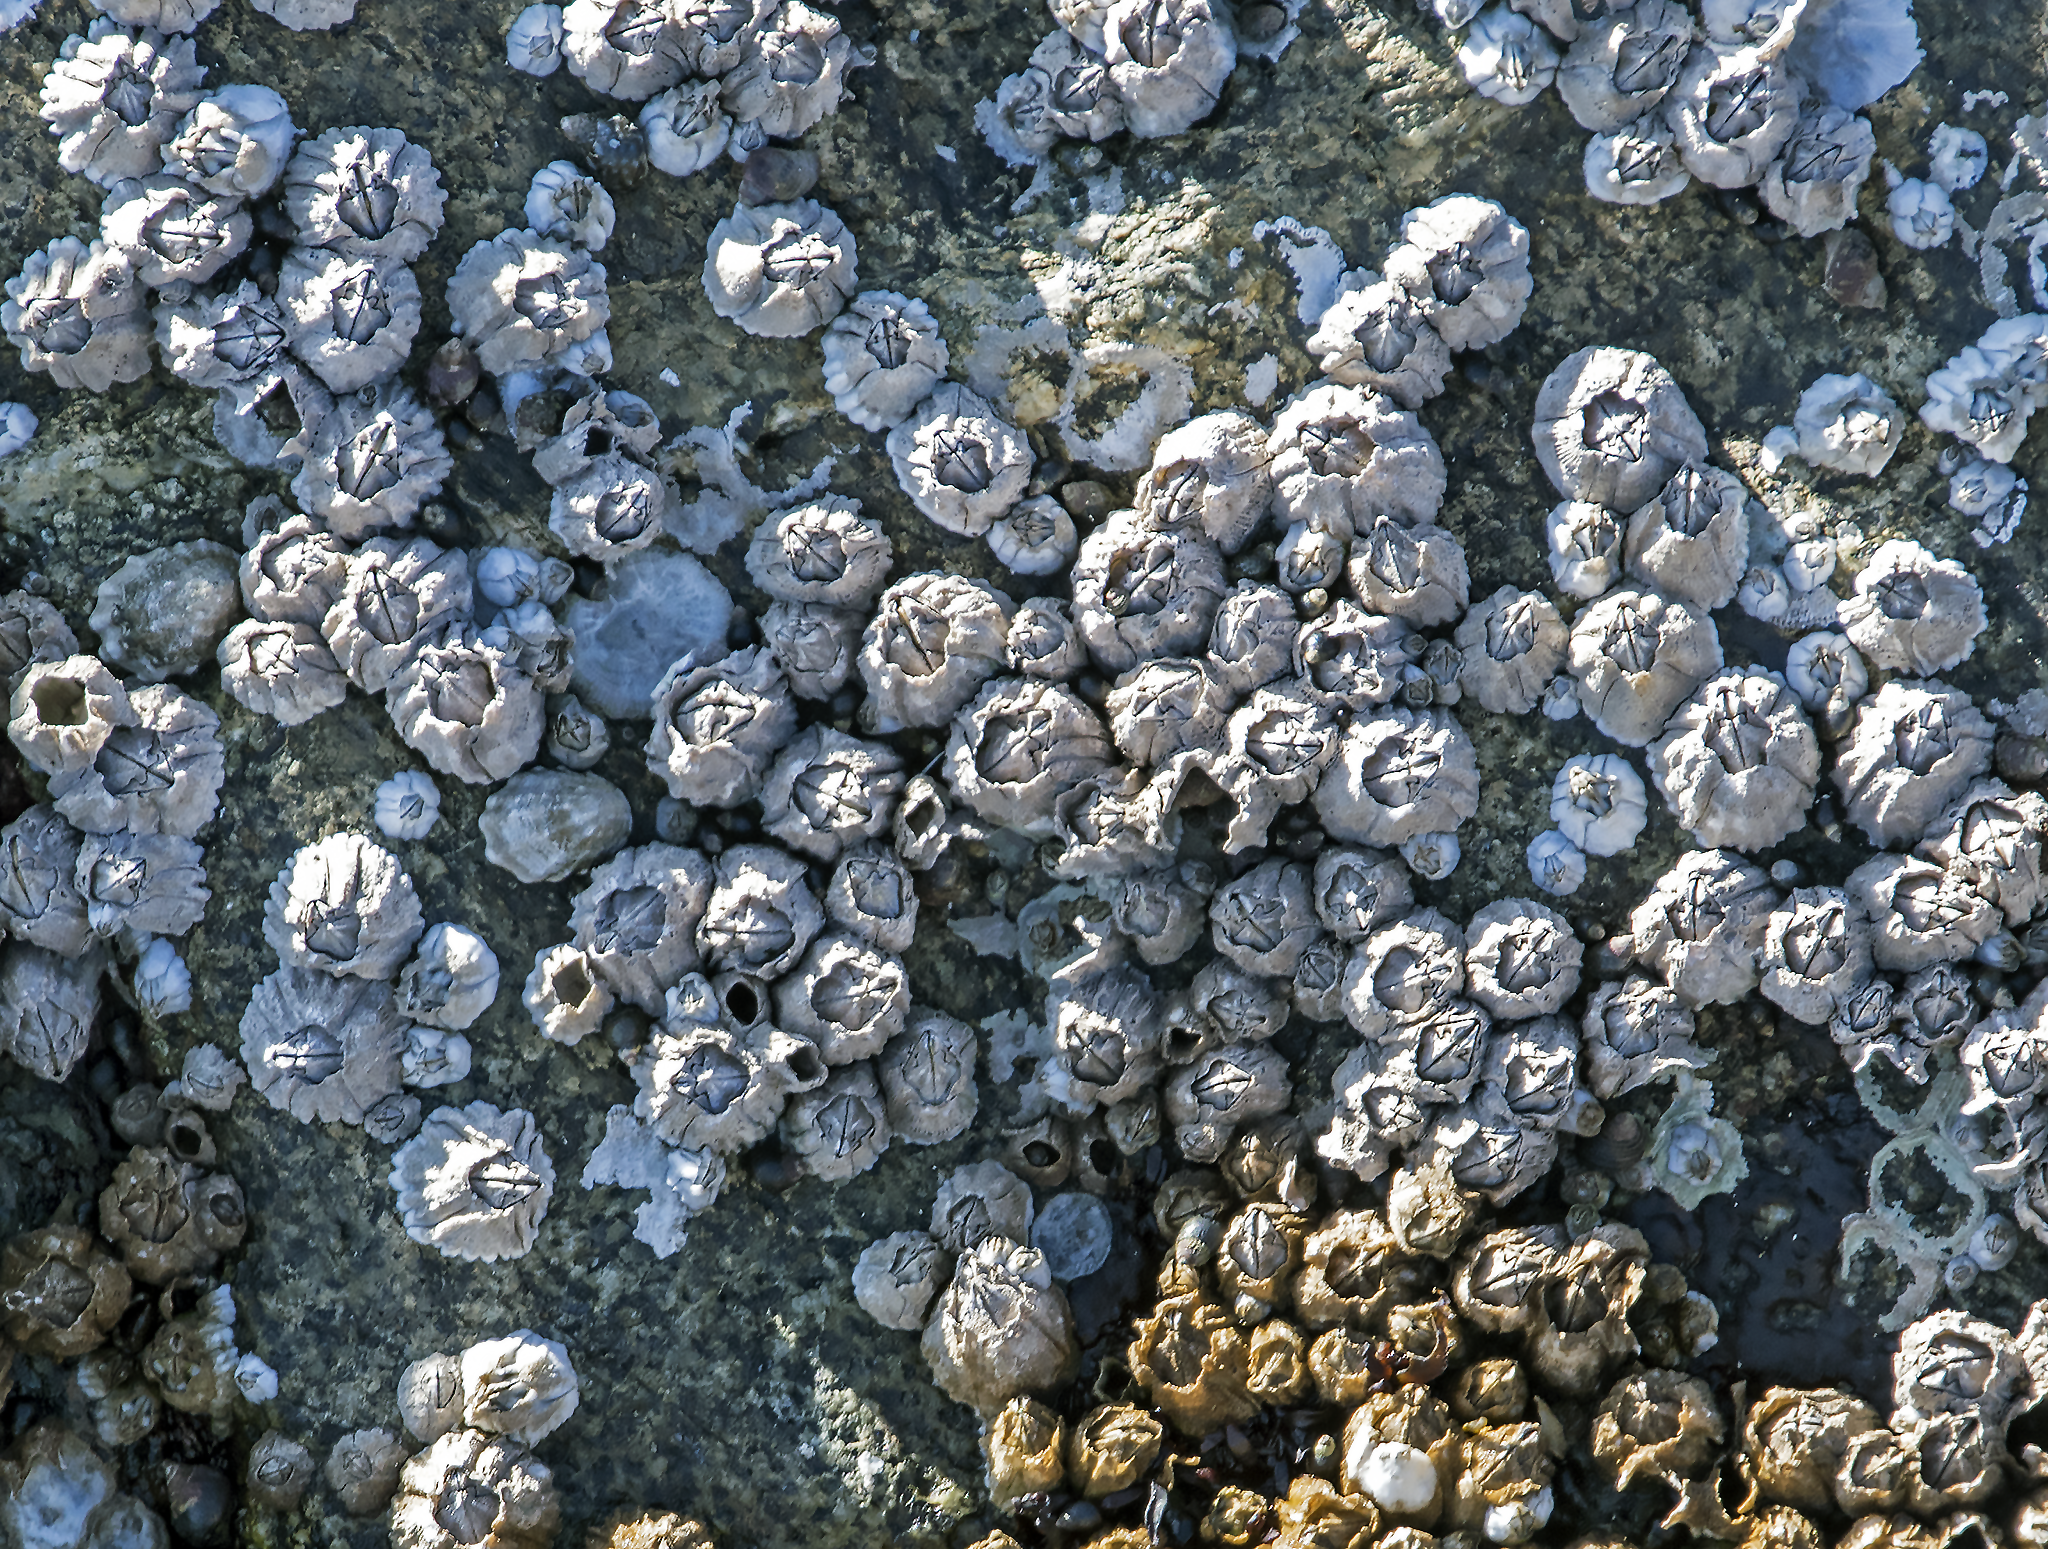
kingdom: Animalia
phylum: Arthropoda
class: Maxillopoda
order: Sessilia
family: Balanidae
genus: Balanus
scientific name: Balanus glandula
